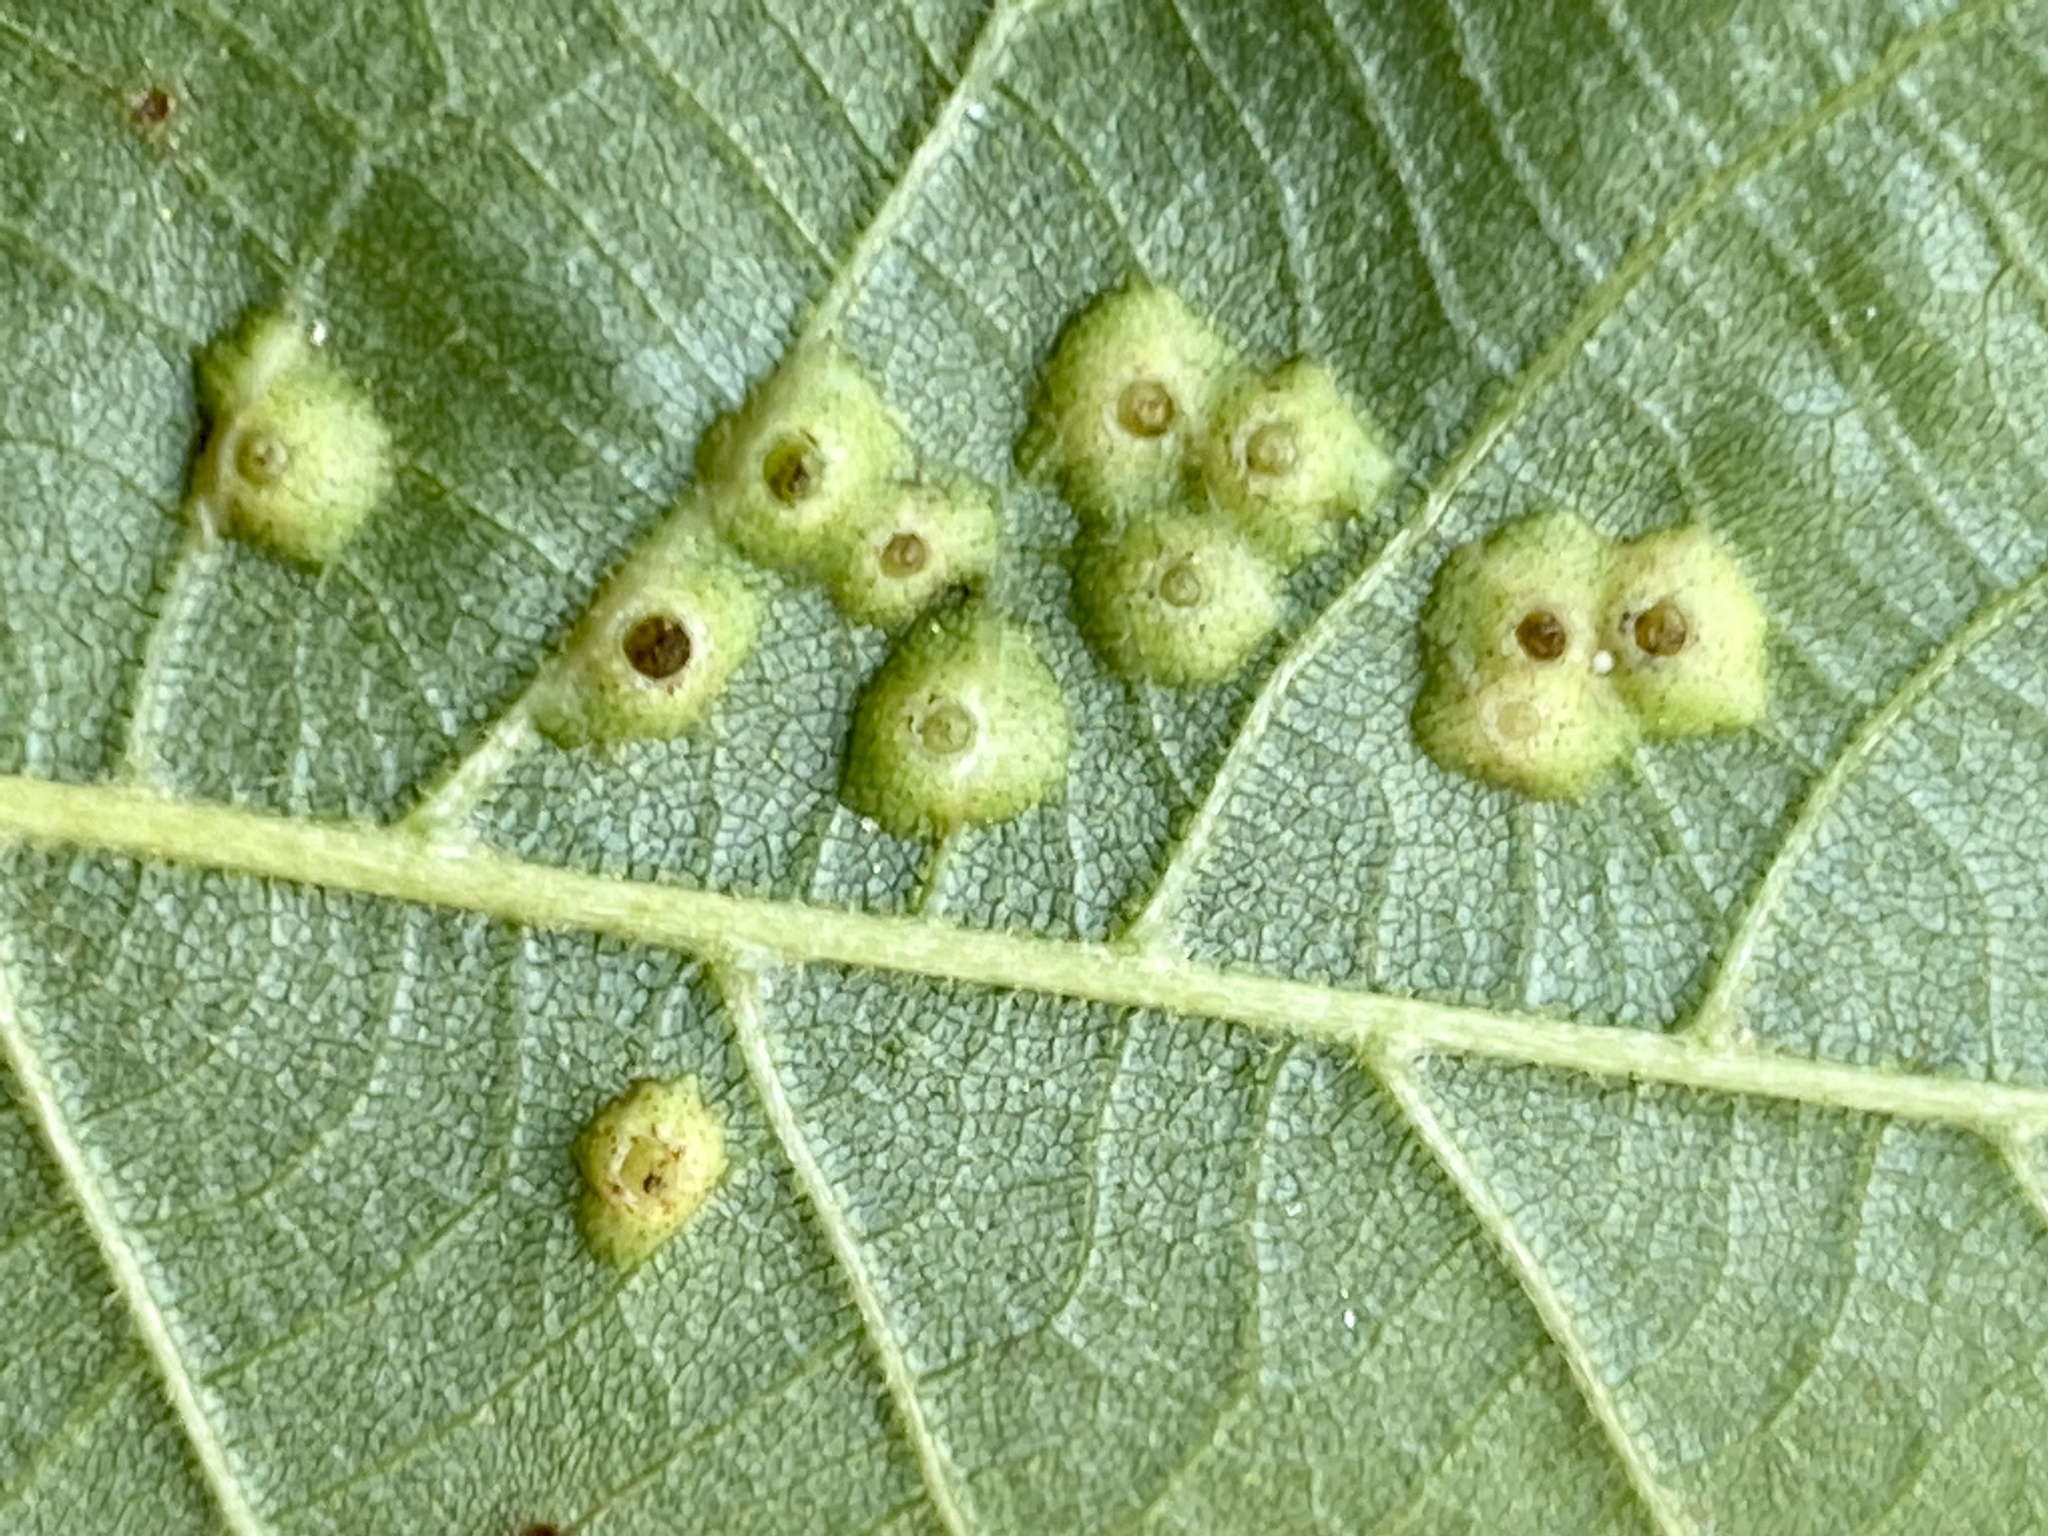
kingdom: Animalia
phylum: Arthropoda
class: Insecta
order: Diptera
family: Cecidomyiidae
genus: Caryomyia
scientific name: Caryomyia tubicola
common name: Hickory bullet gall midge
